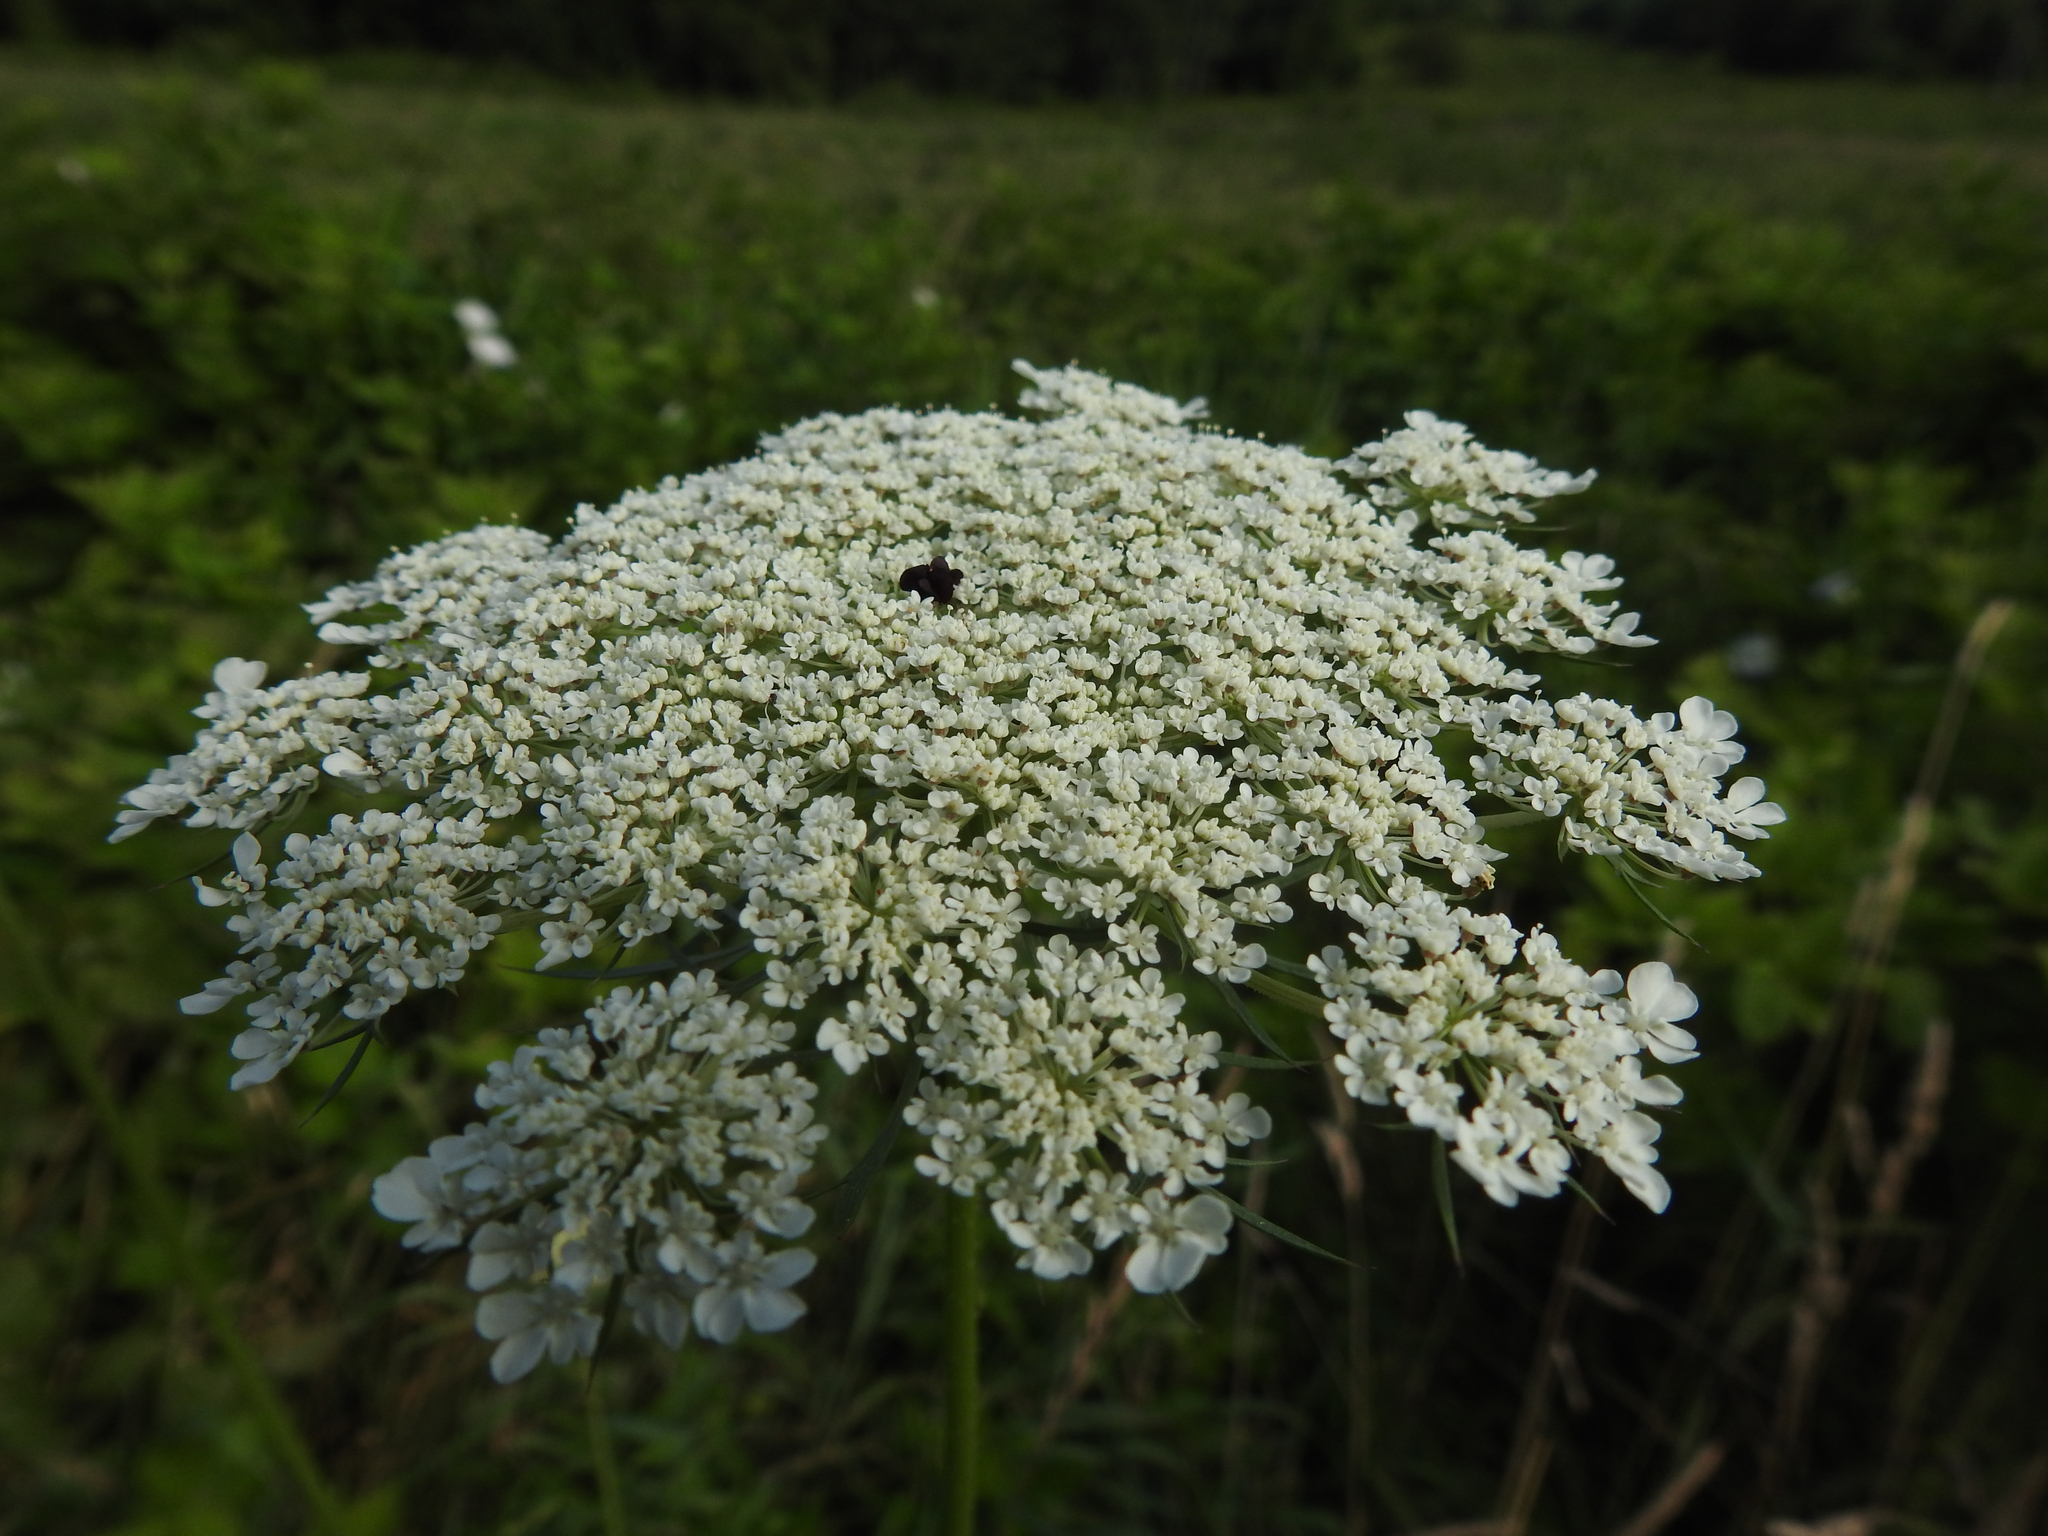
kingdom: Plantae
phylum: Tracheophyta
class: Magnoliopsida
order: Apiales
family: Apiaceae
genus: Daucus
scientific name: Daucus carota
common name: Wild carrot
